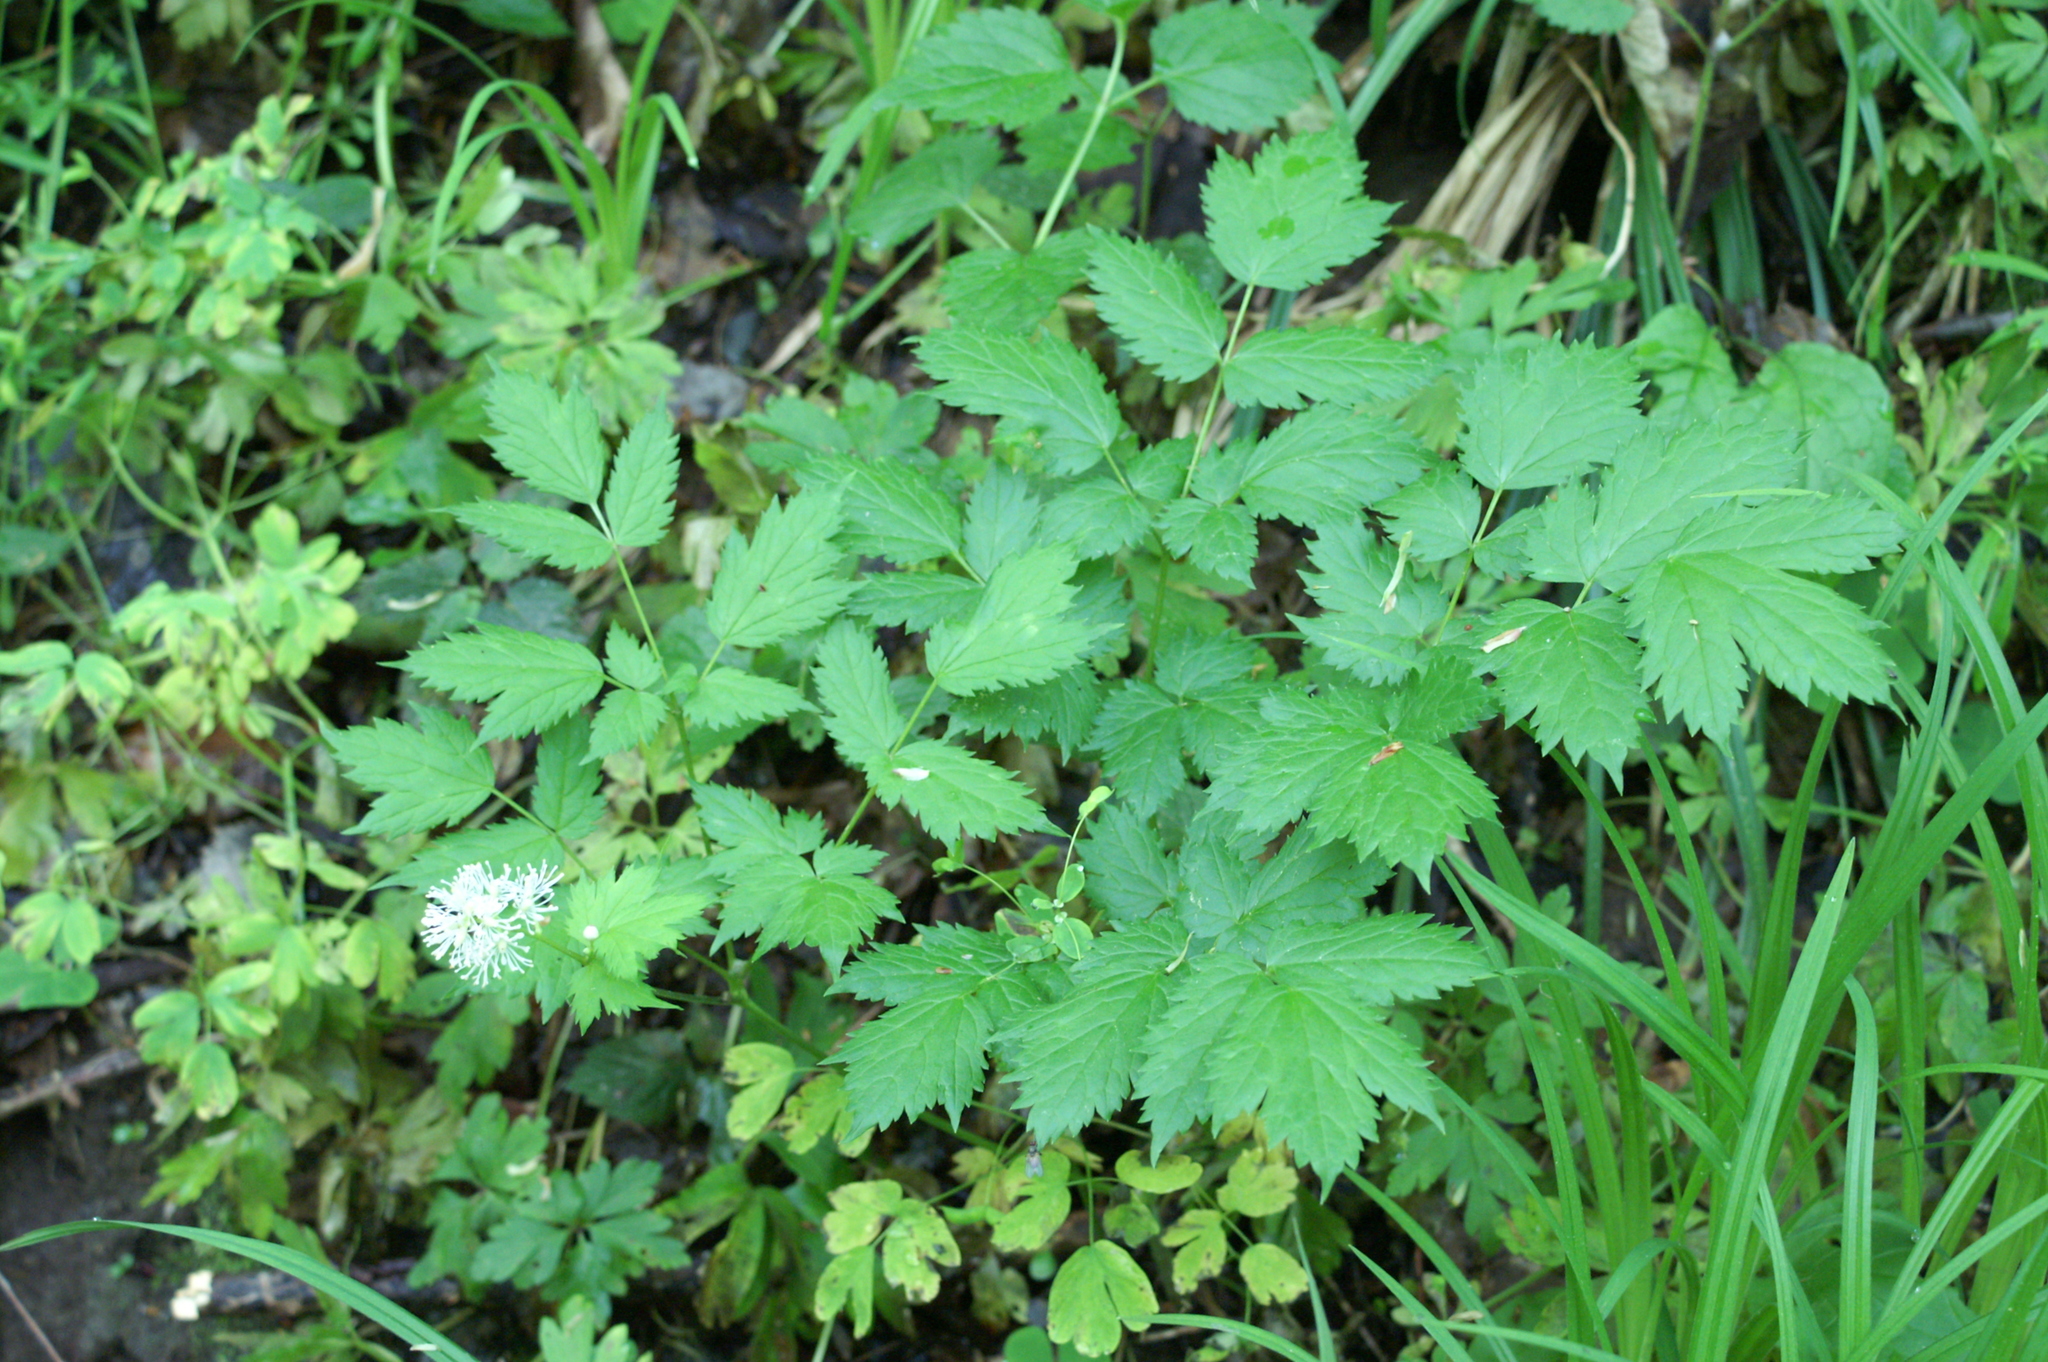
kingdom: Plantae
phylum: Tracheophyta
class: Magnoliopsida
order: Ranunculales
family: Ranunculaceae
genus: Actaea
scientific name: Actaea spicata
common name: Baneberry
